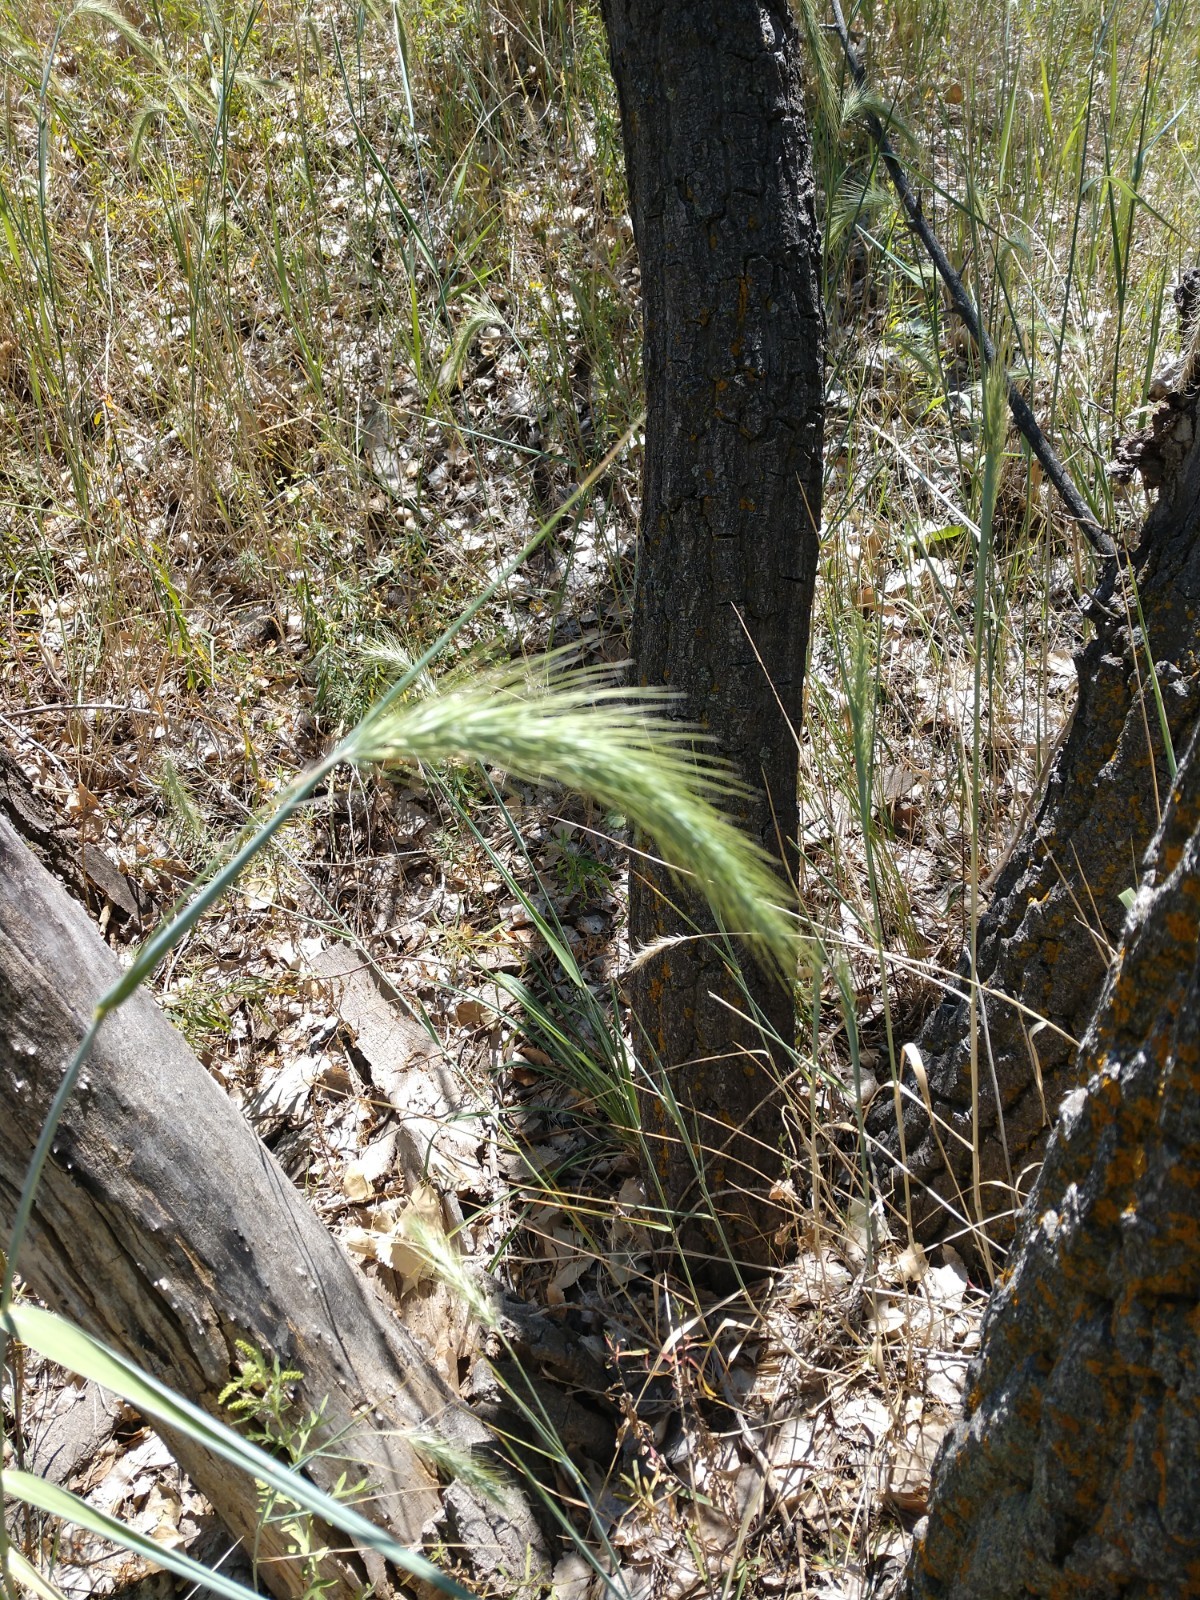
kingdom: Plantae
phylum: Tracheophyta
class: Liliopsida
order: Poales
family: Poaceae
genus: Elymus
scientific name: Elymus canadensis
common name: Canada wild rye
